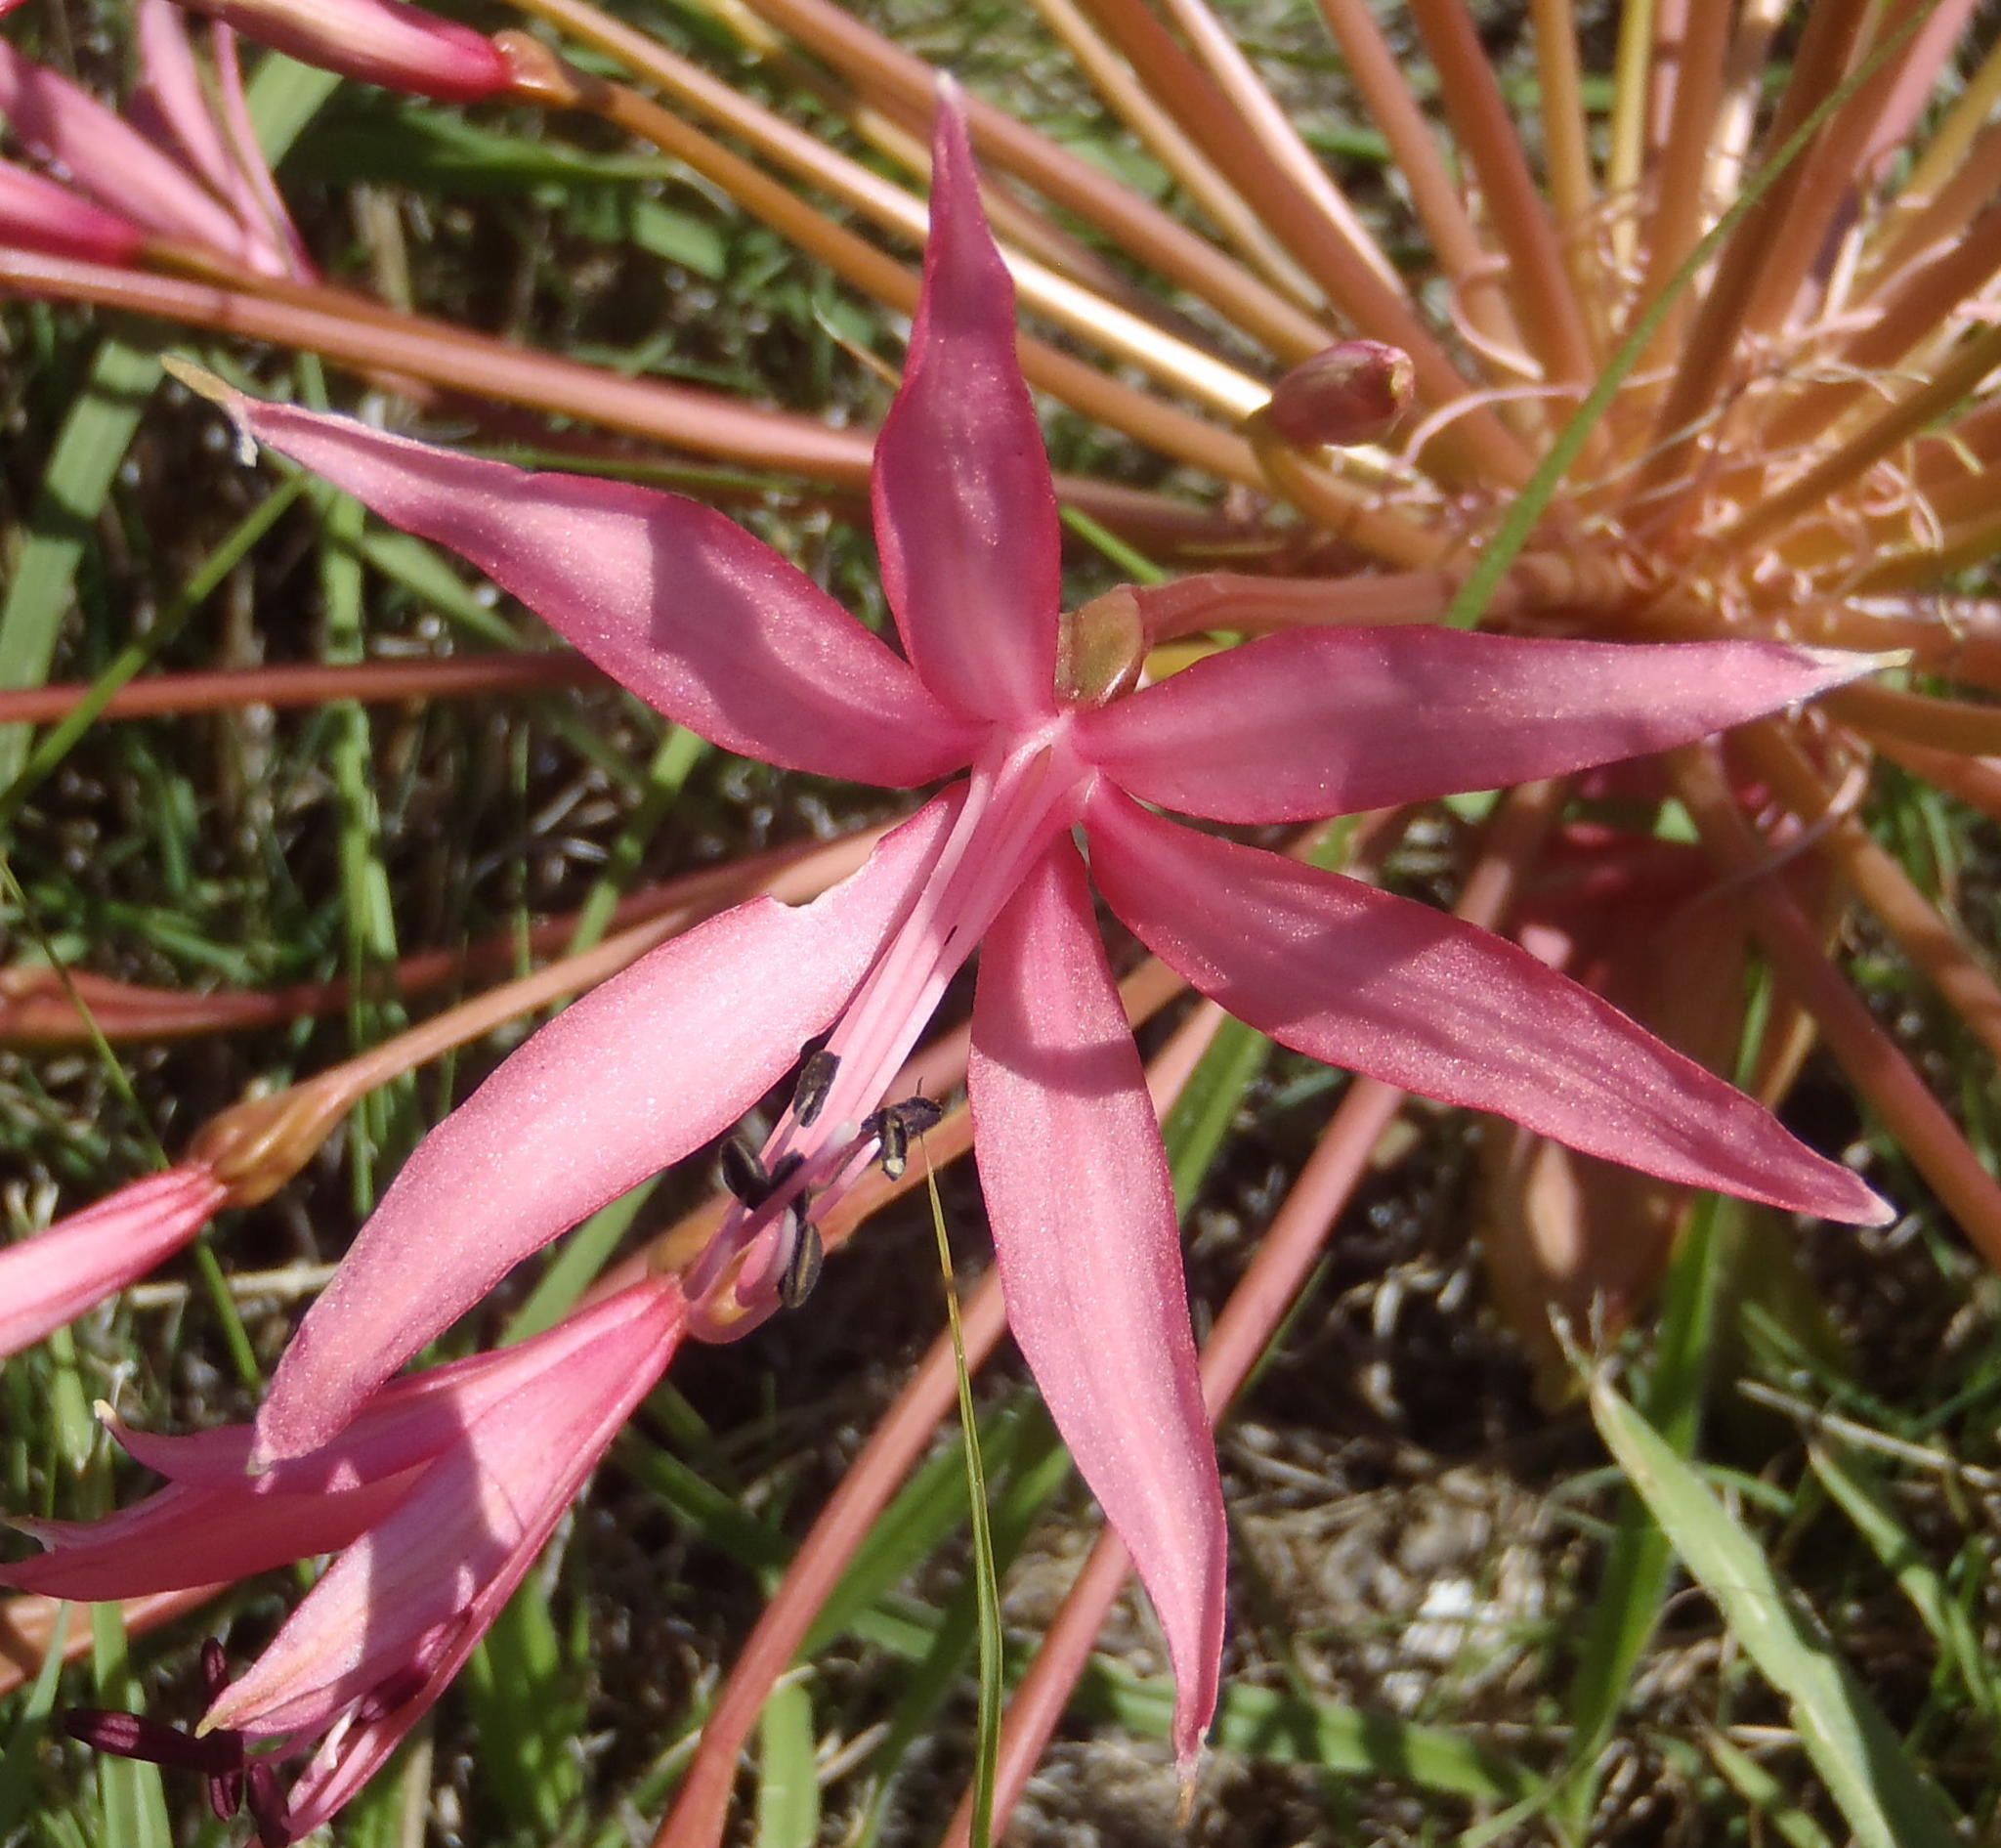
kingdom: Plantae
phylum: Tracheophyta
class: Liliopsida
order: Asparagales
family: Amaryllidaceae
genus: Brunsvigia
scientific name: Brunsvigia gregaria
